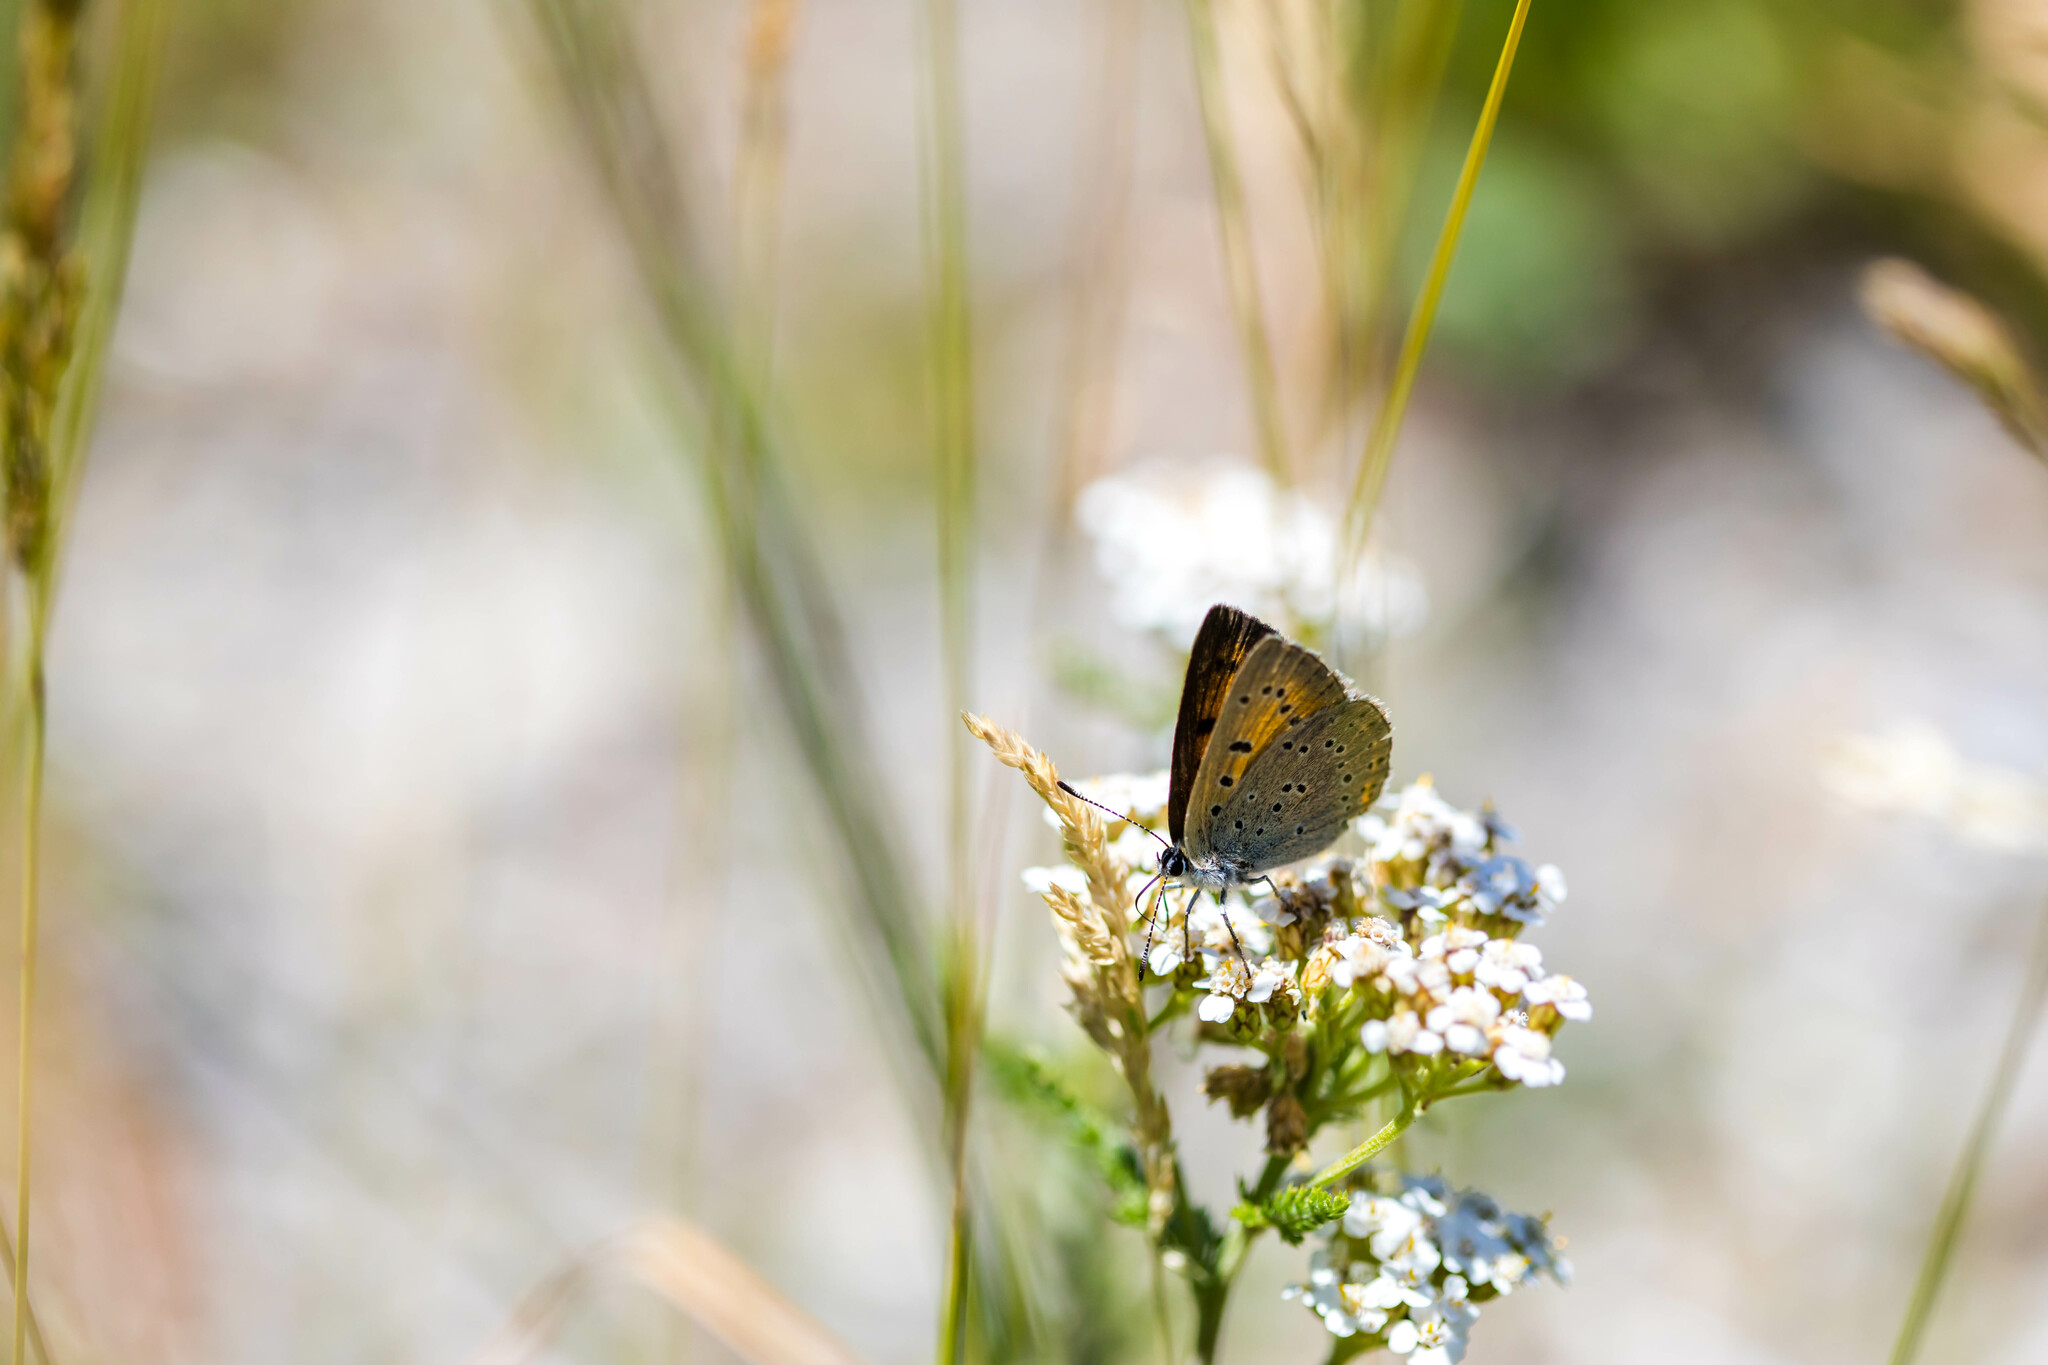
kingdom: Animalia
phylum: Arthropoda
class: Insecta
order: Lepidoptera
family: Lycaenidae
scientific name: Lycaenidae
